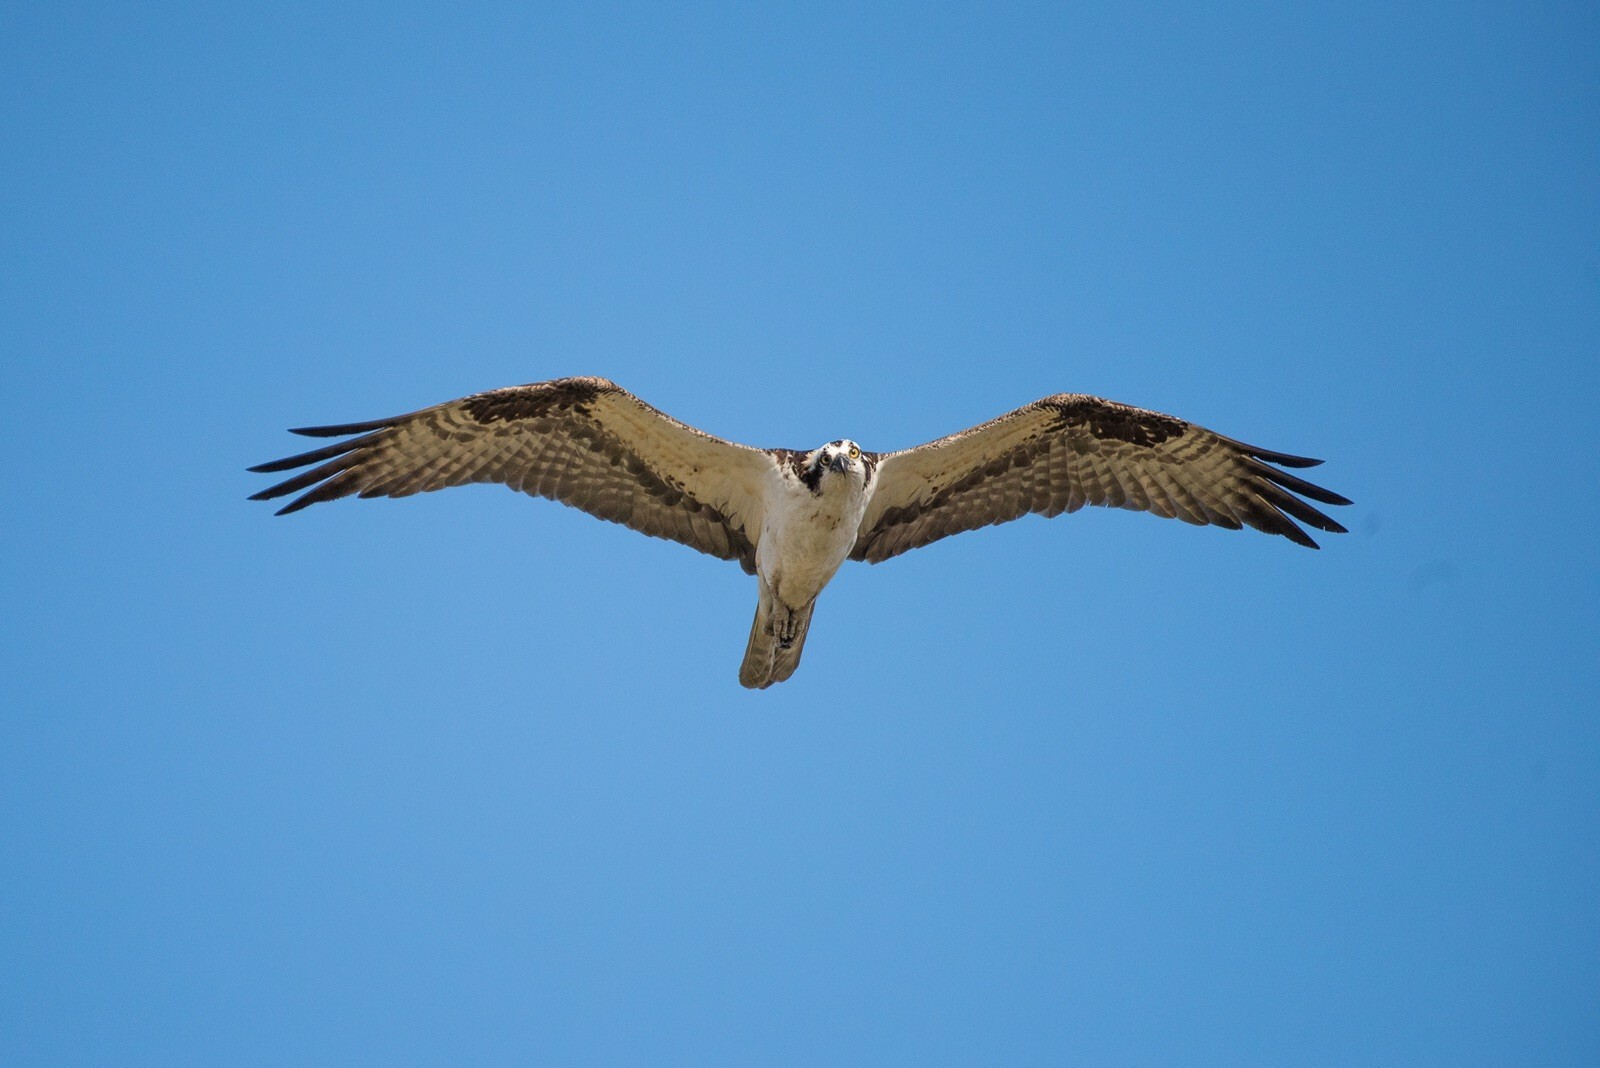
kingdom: Animalia
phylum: Chordata
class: Aves
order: Accipitriformes
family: Pandionidae
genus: Pandion
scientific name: Pandion haliaetus
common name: Osprey
